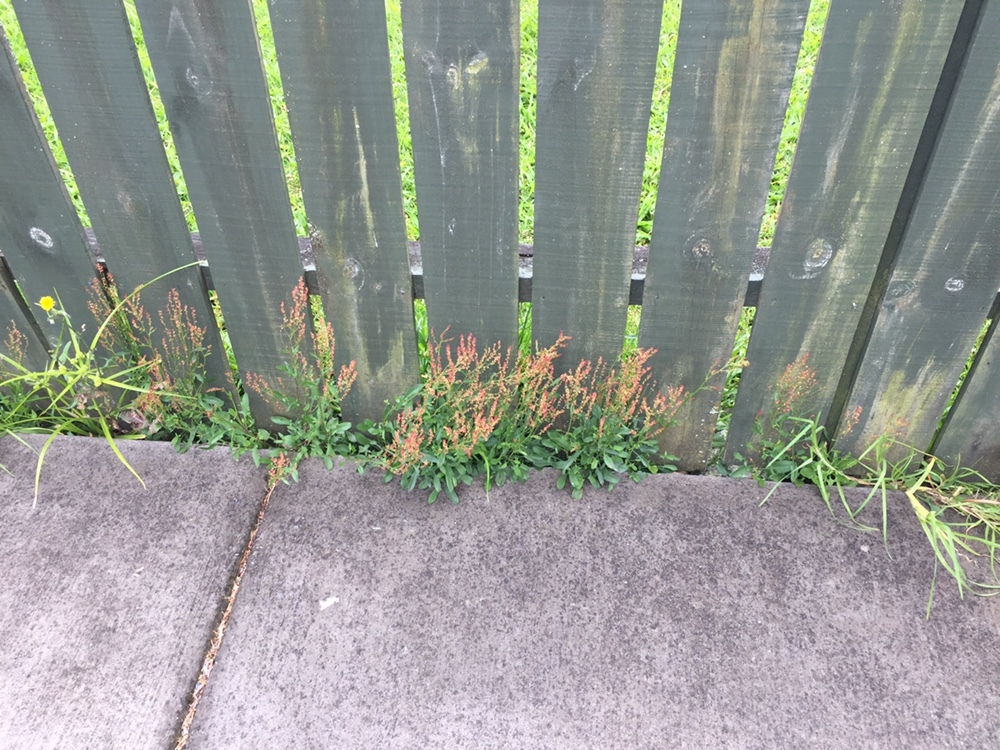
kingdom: Plantae
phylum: Tracheophyta
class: Magnoliopsida
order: Caryophyllales
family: Polygonaceae
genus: Rumex
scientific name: Rumex acetosella
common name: Common sheep sorrel
